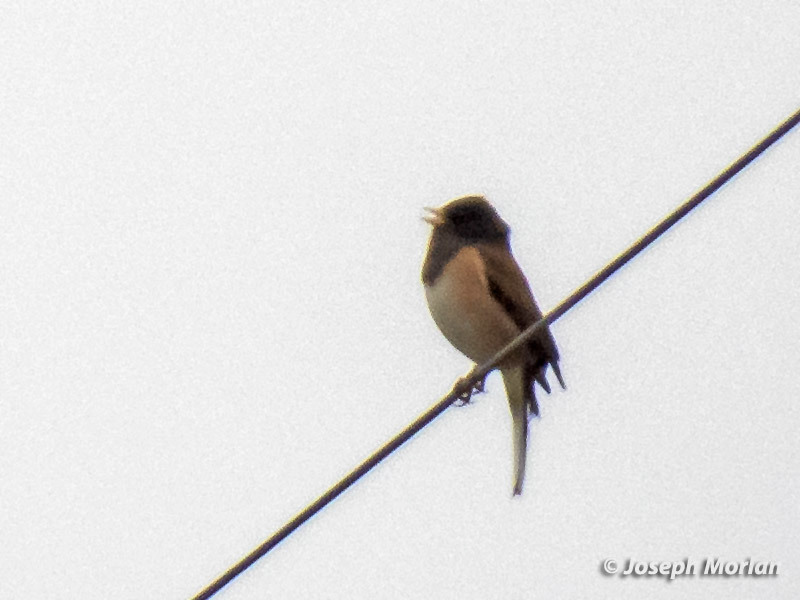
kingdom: Animalia
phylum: Chordata
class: Aves
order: Passeriformes
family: Passerellidae
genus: Junco
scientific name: Junco hyemalis
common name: Dark-eyed junco
